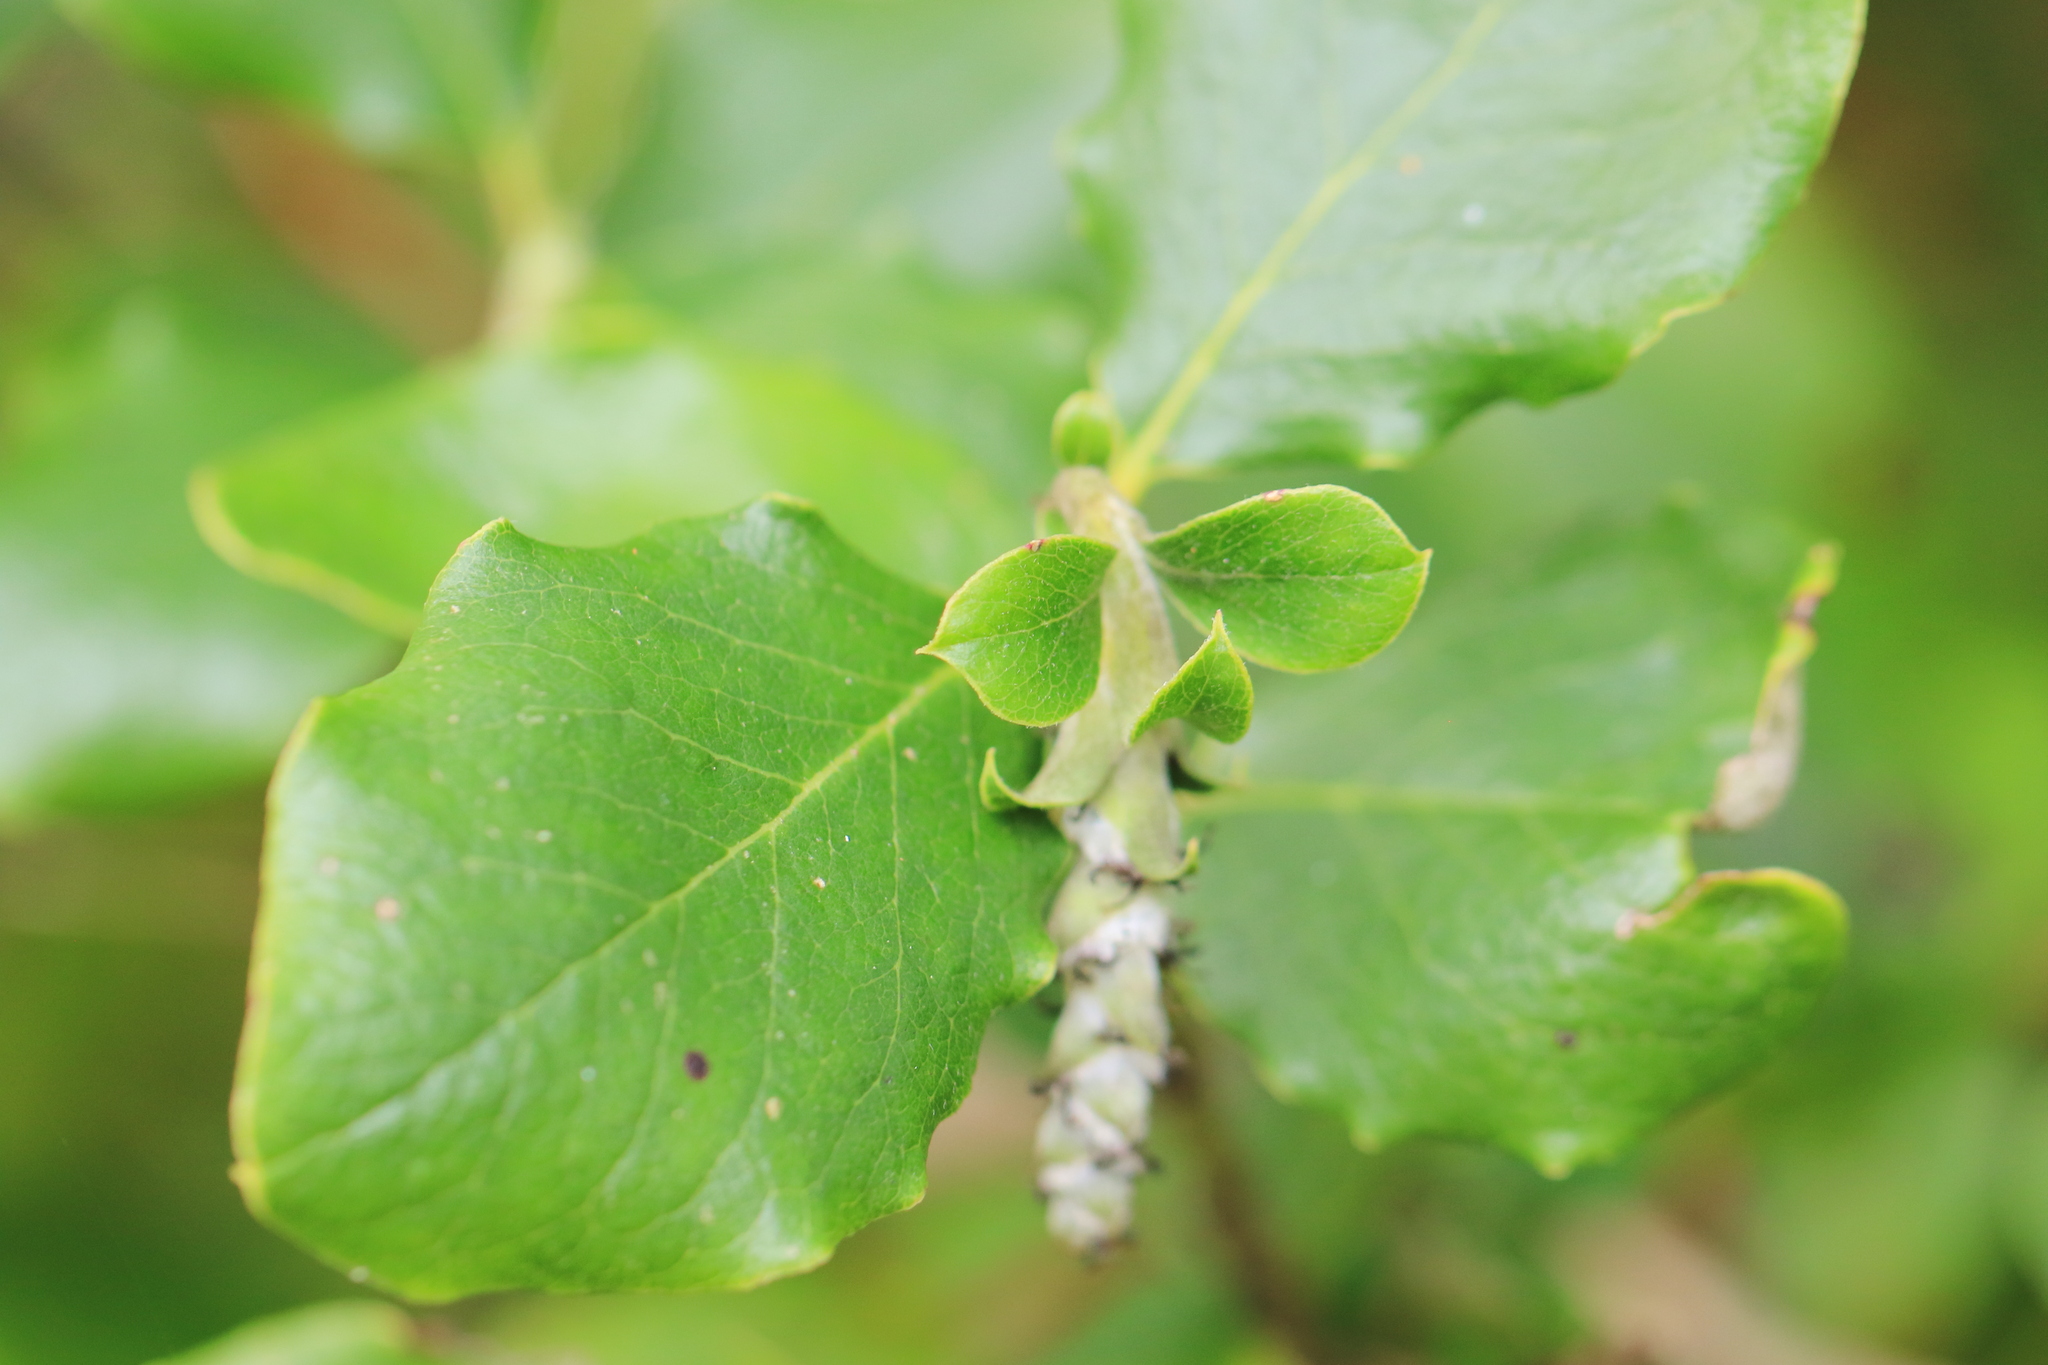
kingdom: Plantae
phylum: Tracheophyta
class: Magnoliopsida
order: Garryales
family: Garryaceae
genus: Garrya
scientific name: Garrya elliptica
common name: Silk-tassel
